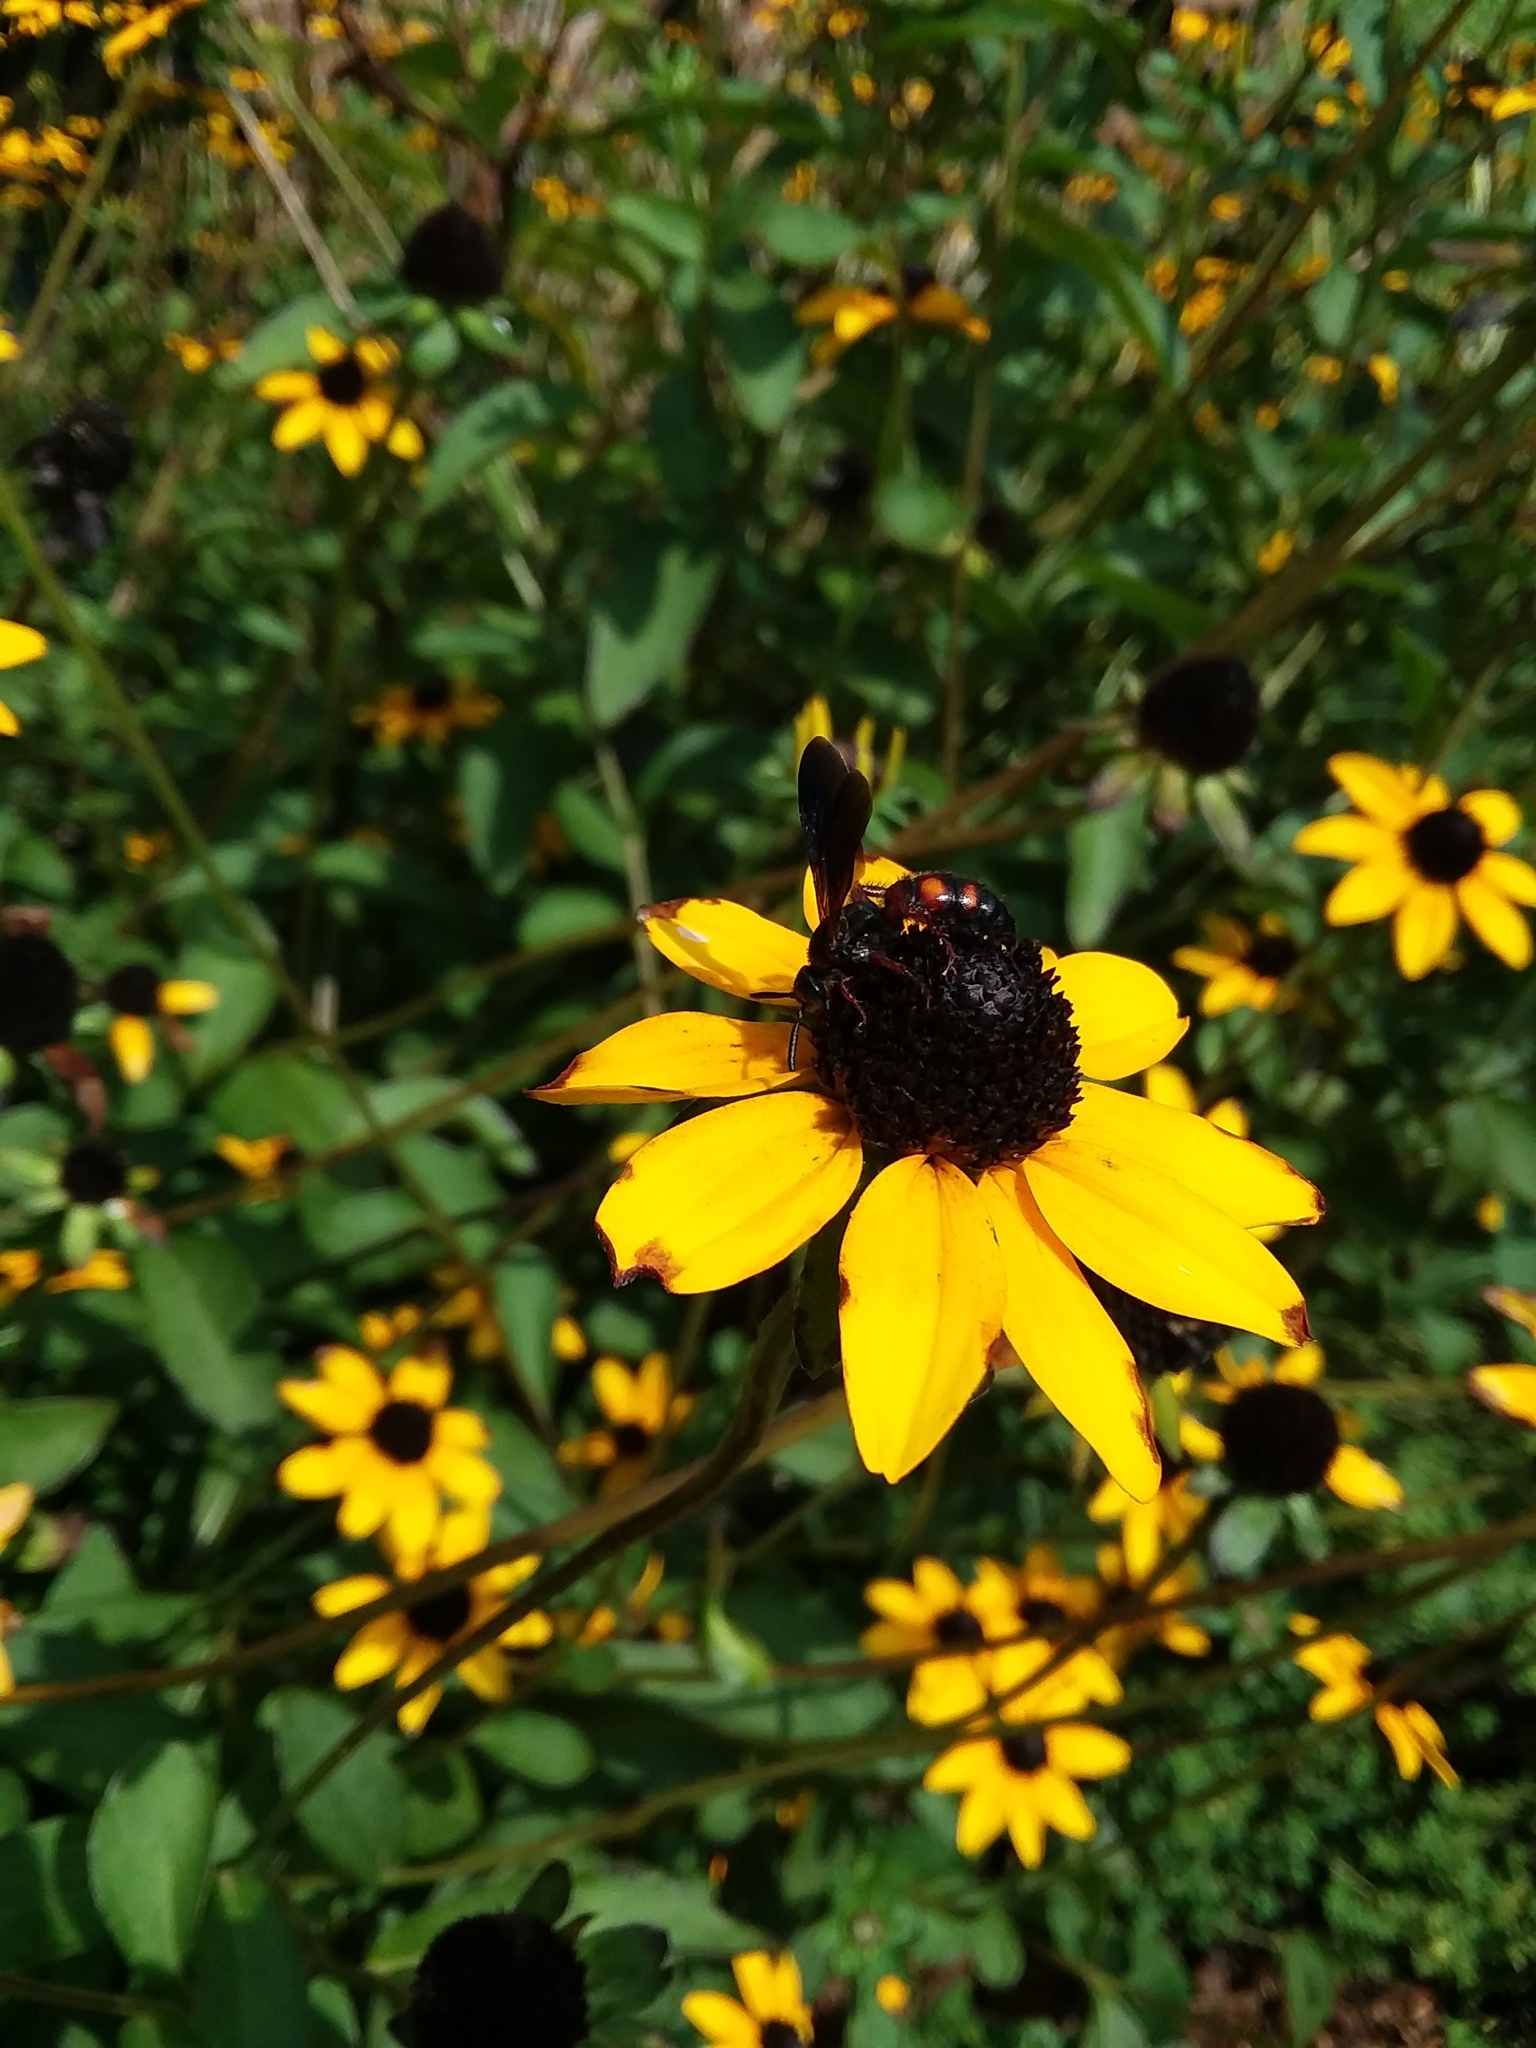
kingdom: Animalia
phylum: Arthropoda
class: Insecta
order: Hymenoptera
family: Scoliidae
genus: Scolia
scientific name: Scolia nobilitata
